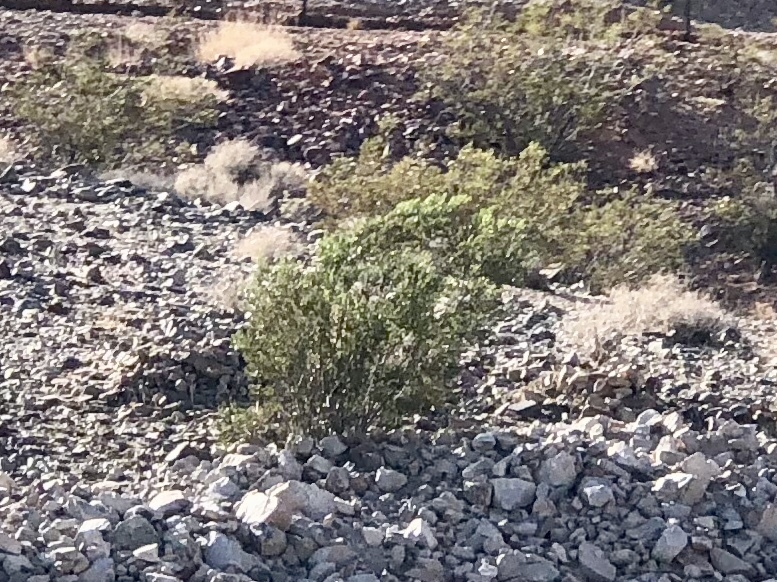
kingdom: Plantae
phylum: Tracheophyta
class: Magnoliopsida
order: Zygophyllales
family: Zygophyllaceae
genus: Larrea
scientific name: Larrea tridentata
